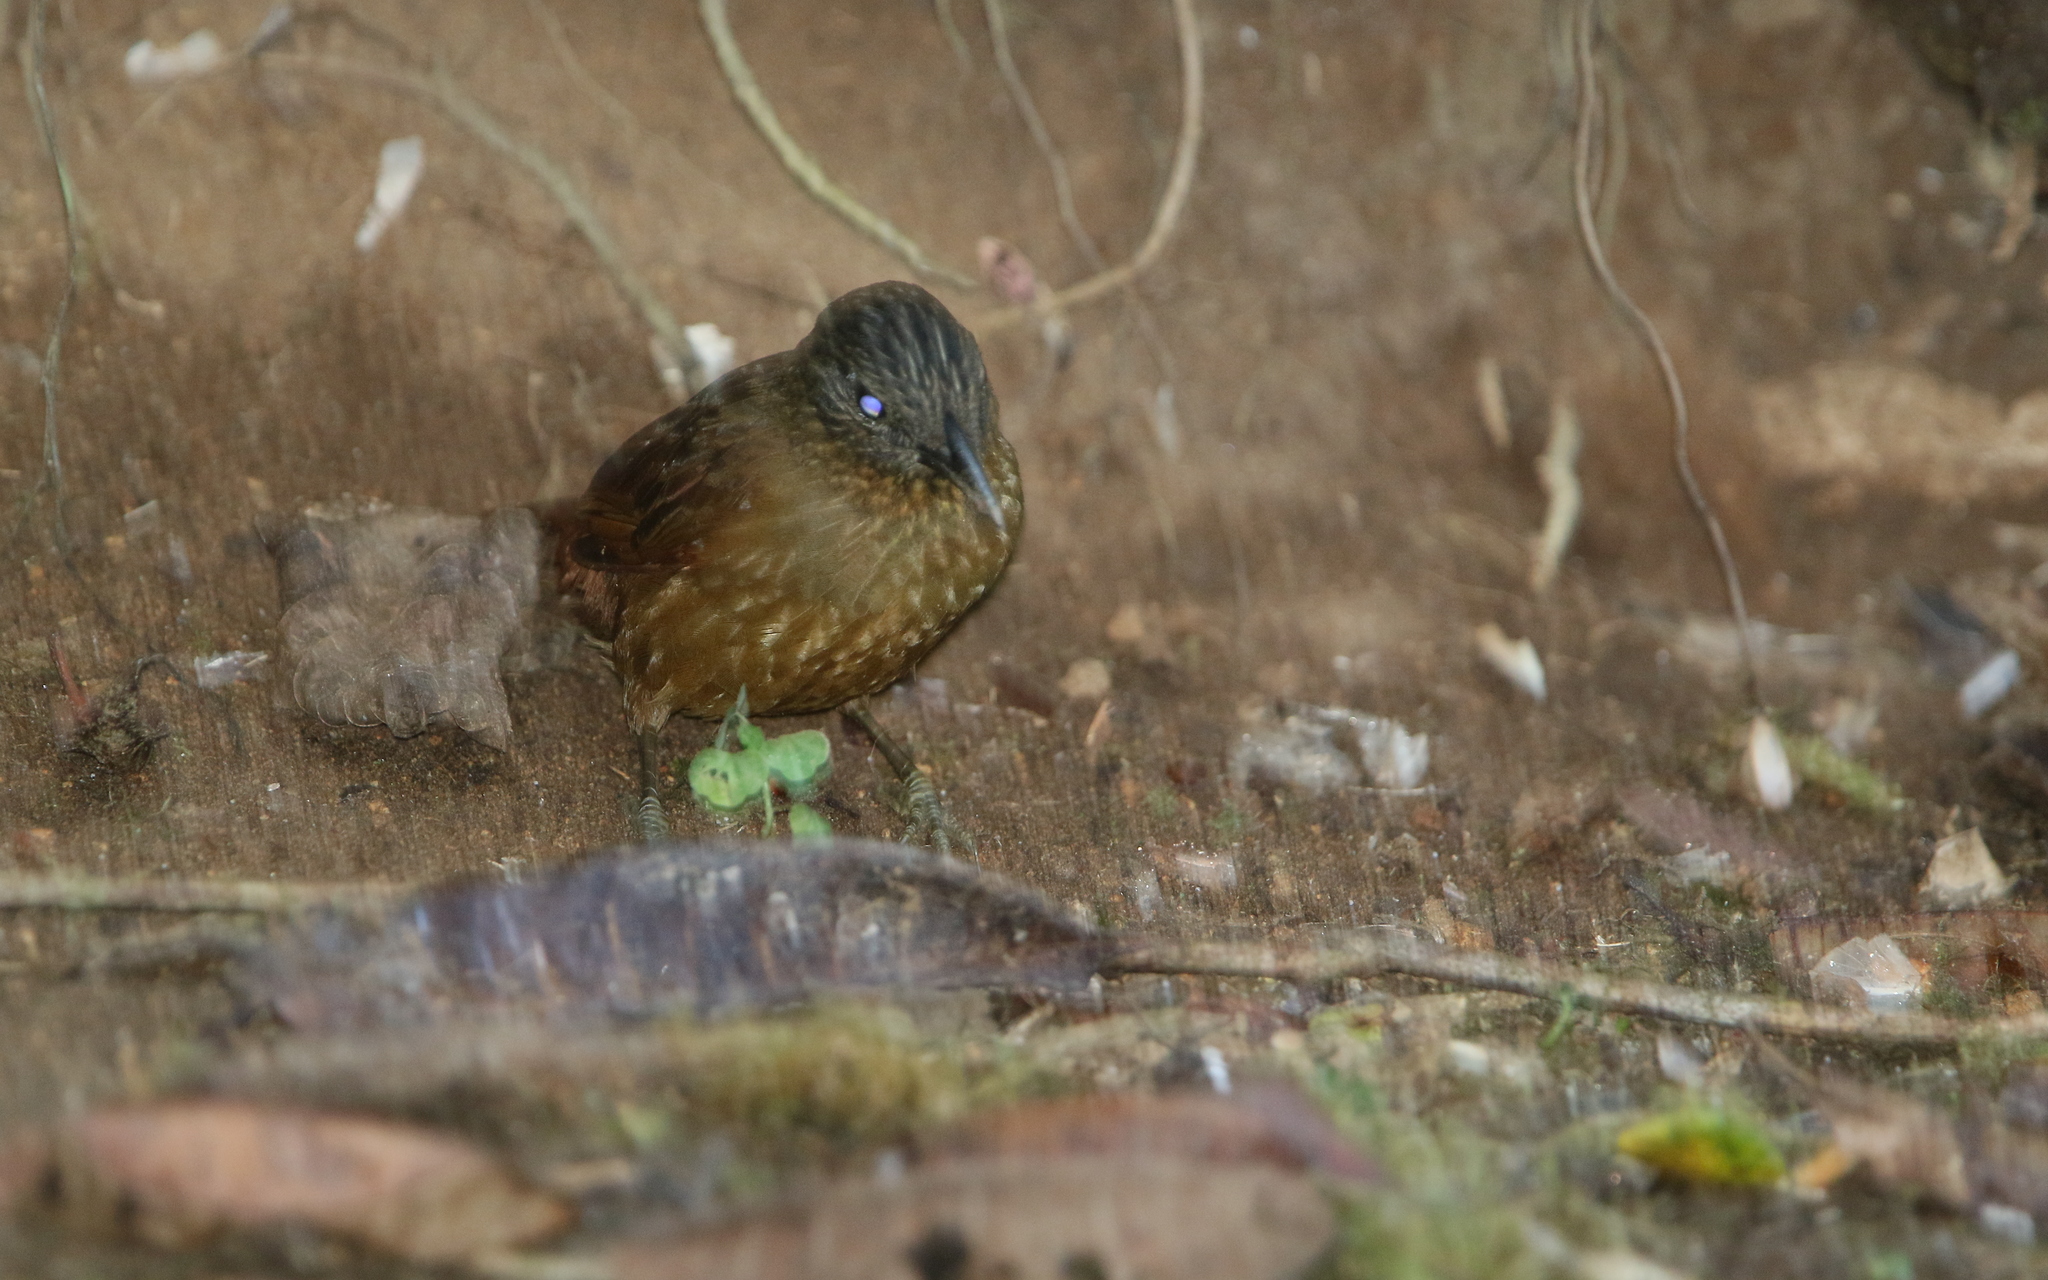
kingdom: Animalia
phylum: Chordata
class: Aves
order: Passeriformes
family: Furnariidae
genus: Thripadectes
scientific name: Thripadectes virgaticeps
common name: Streak-capped treehunter
